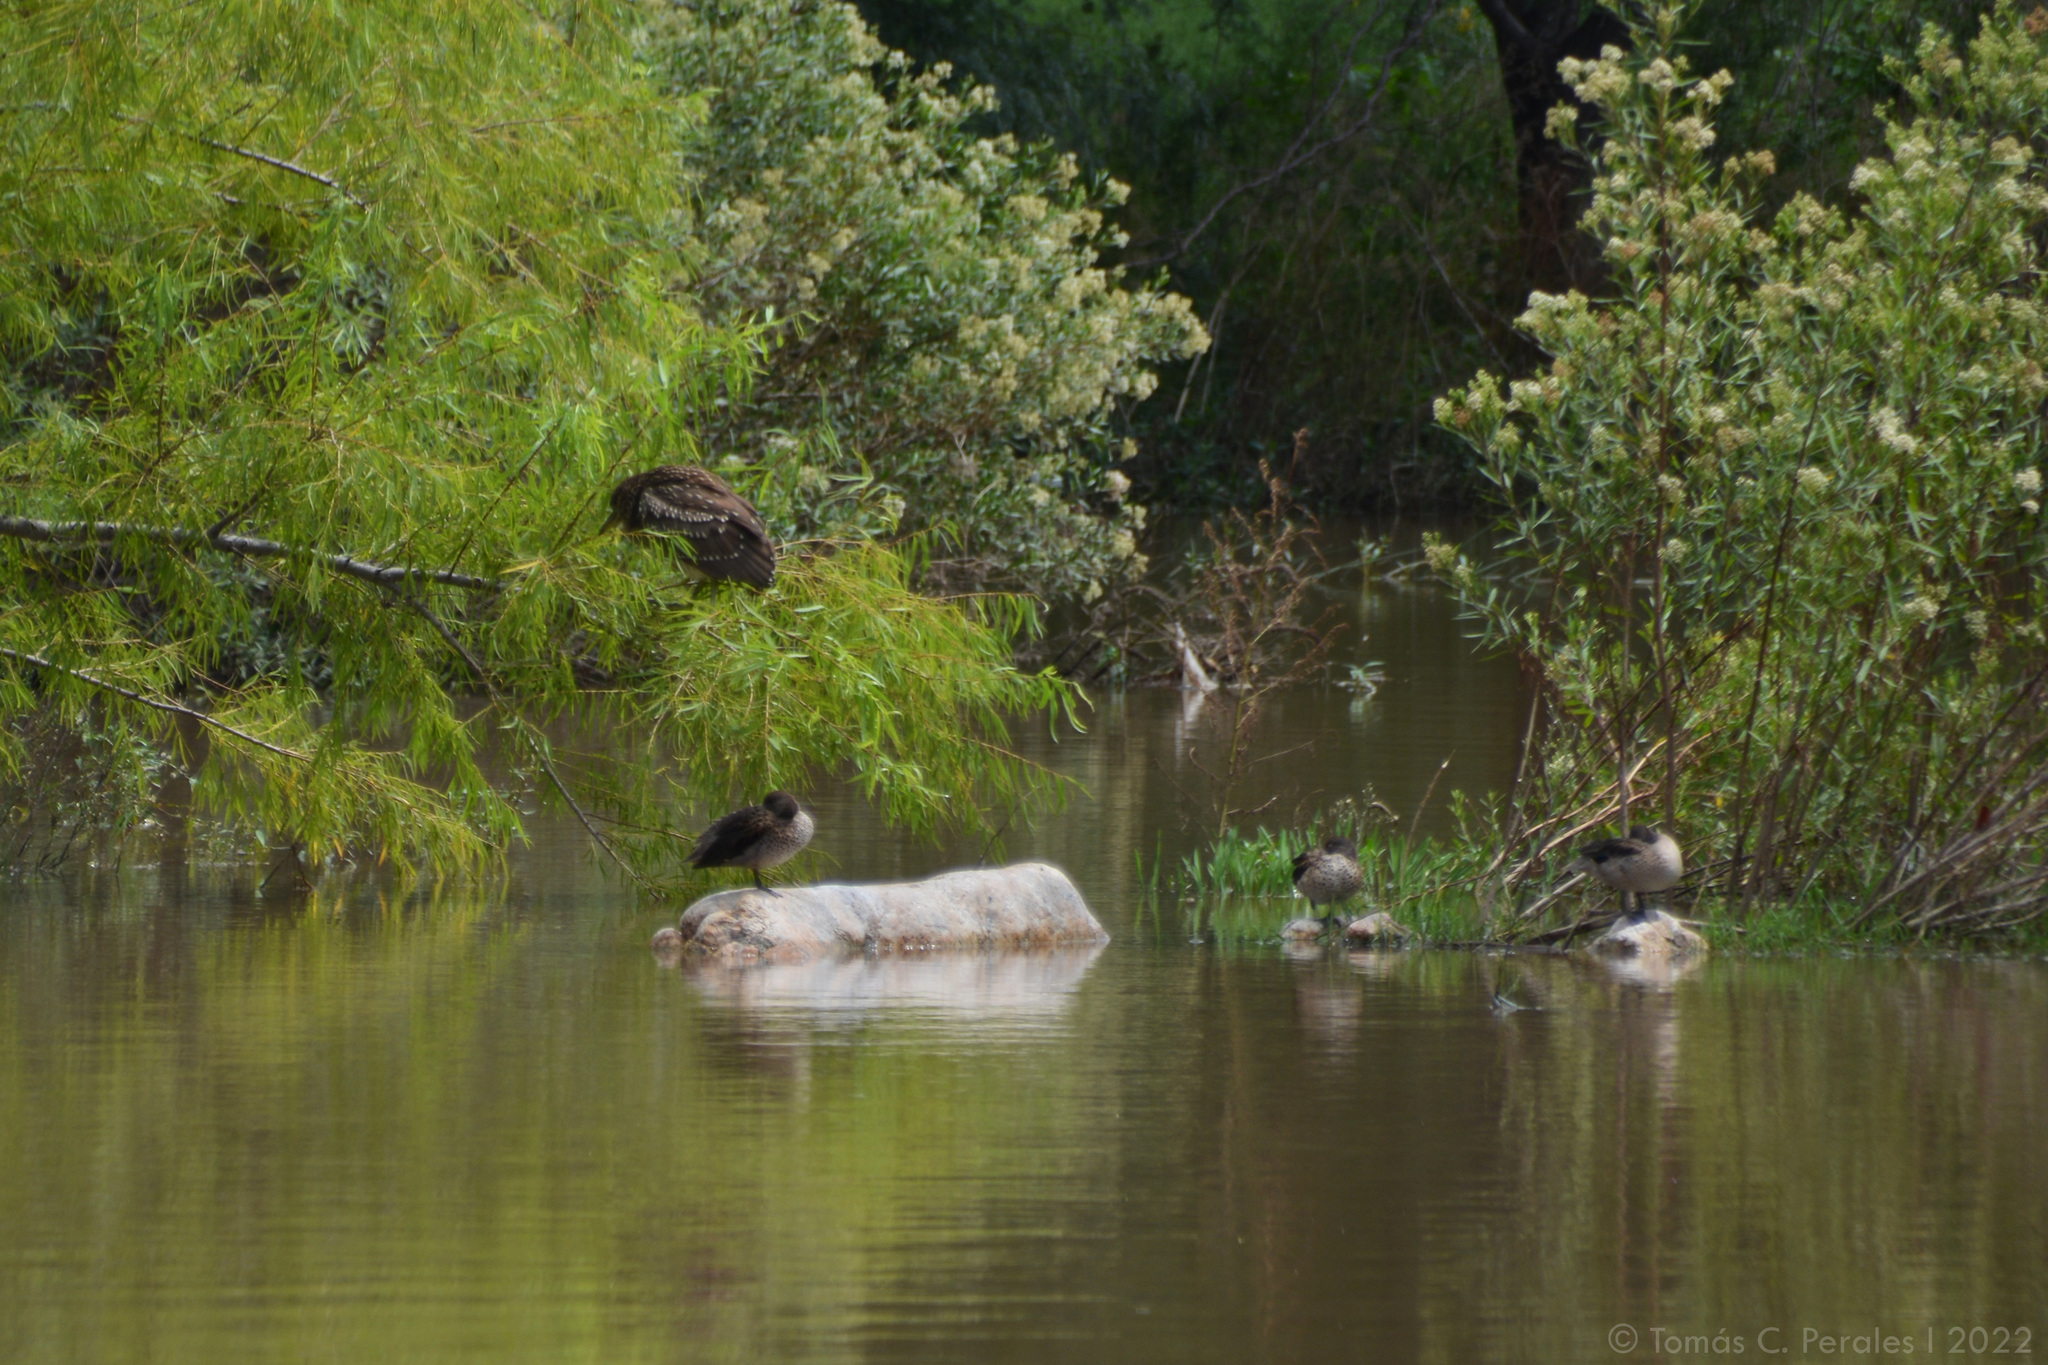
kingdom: Animalia
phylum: Chordata
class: Aves
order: Pelecaniformes
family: Ardeidae
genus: Nycticorax
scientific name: Nycticorax nycticorax
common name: Black-crowned night heron
